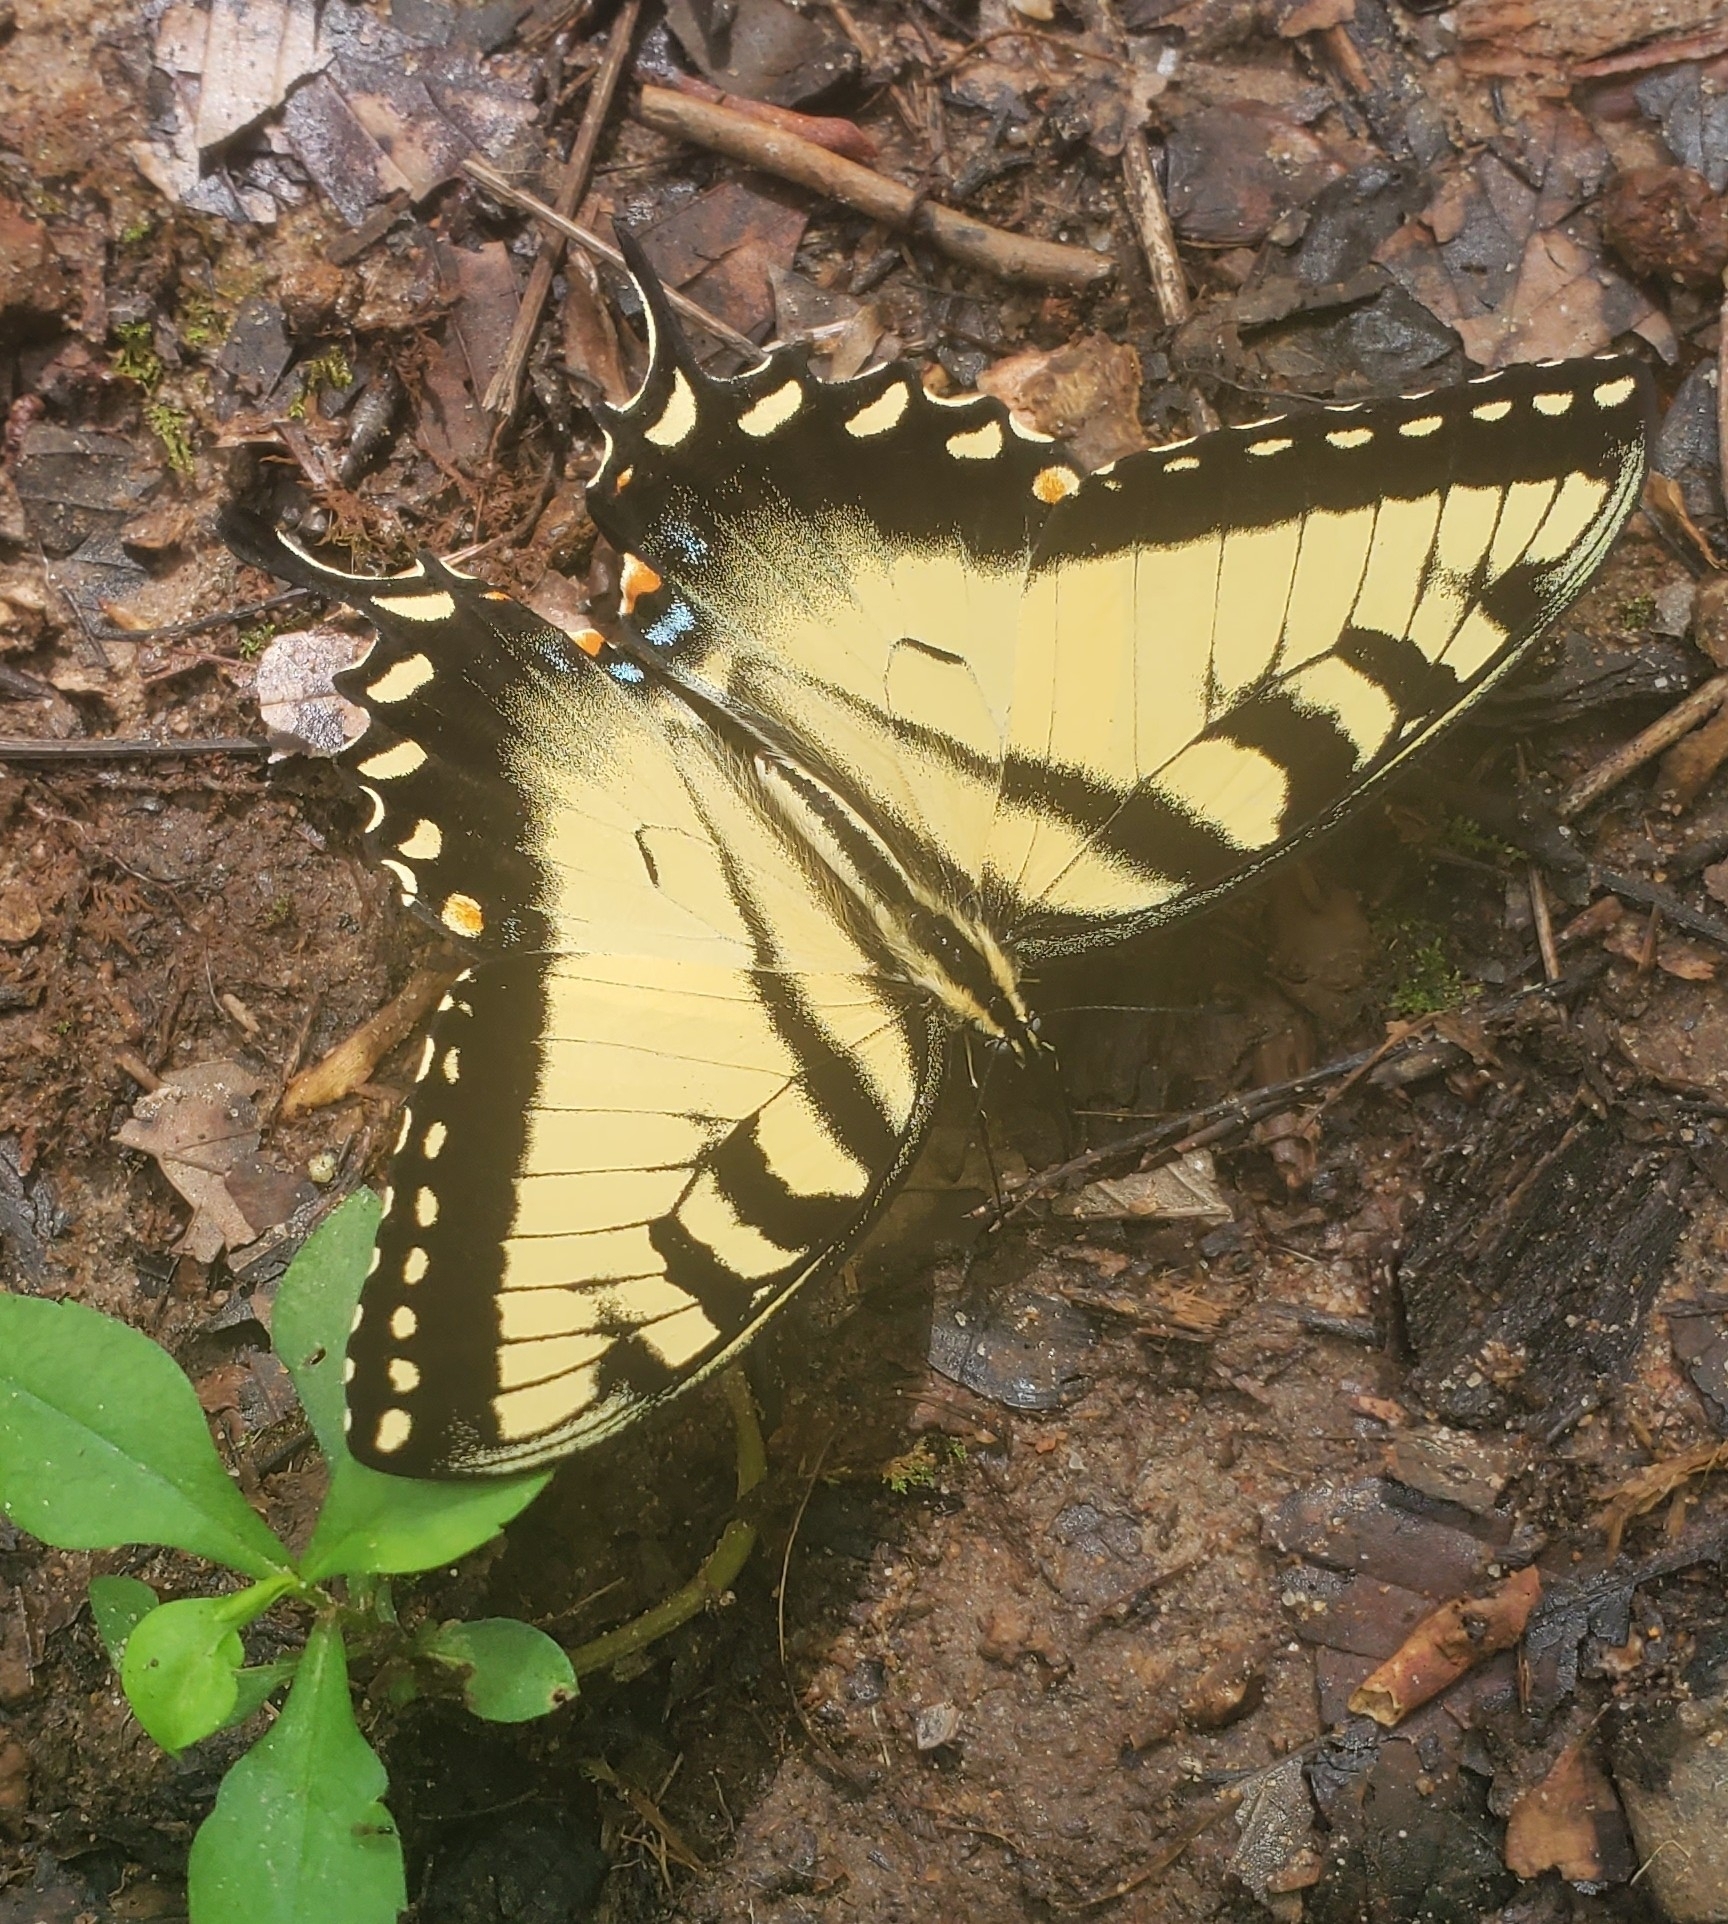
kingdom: Animalia
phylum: Arthropoda
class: Insecta
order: Lepidoptera
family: Papilionidae
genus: Papilio
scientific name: Papilio glaucus
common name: Tiger swallowtail
